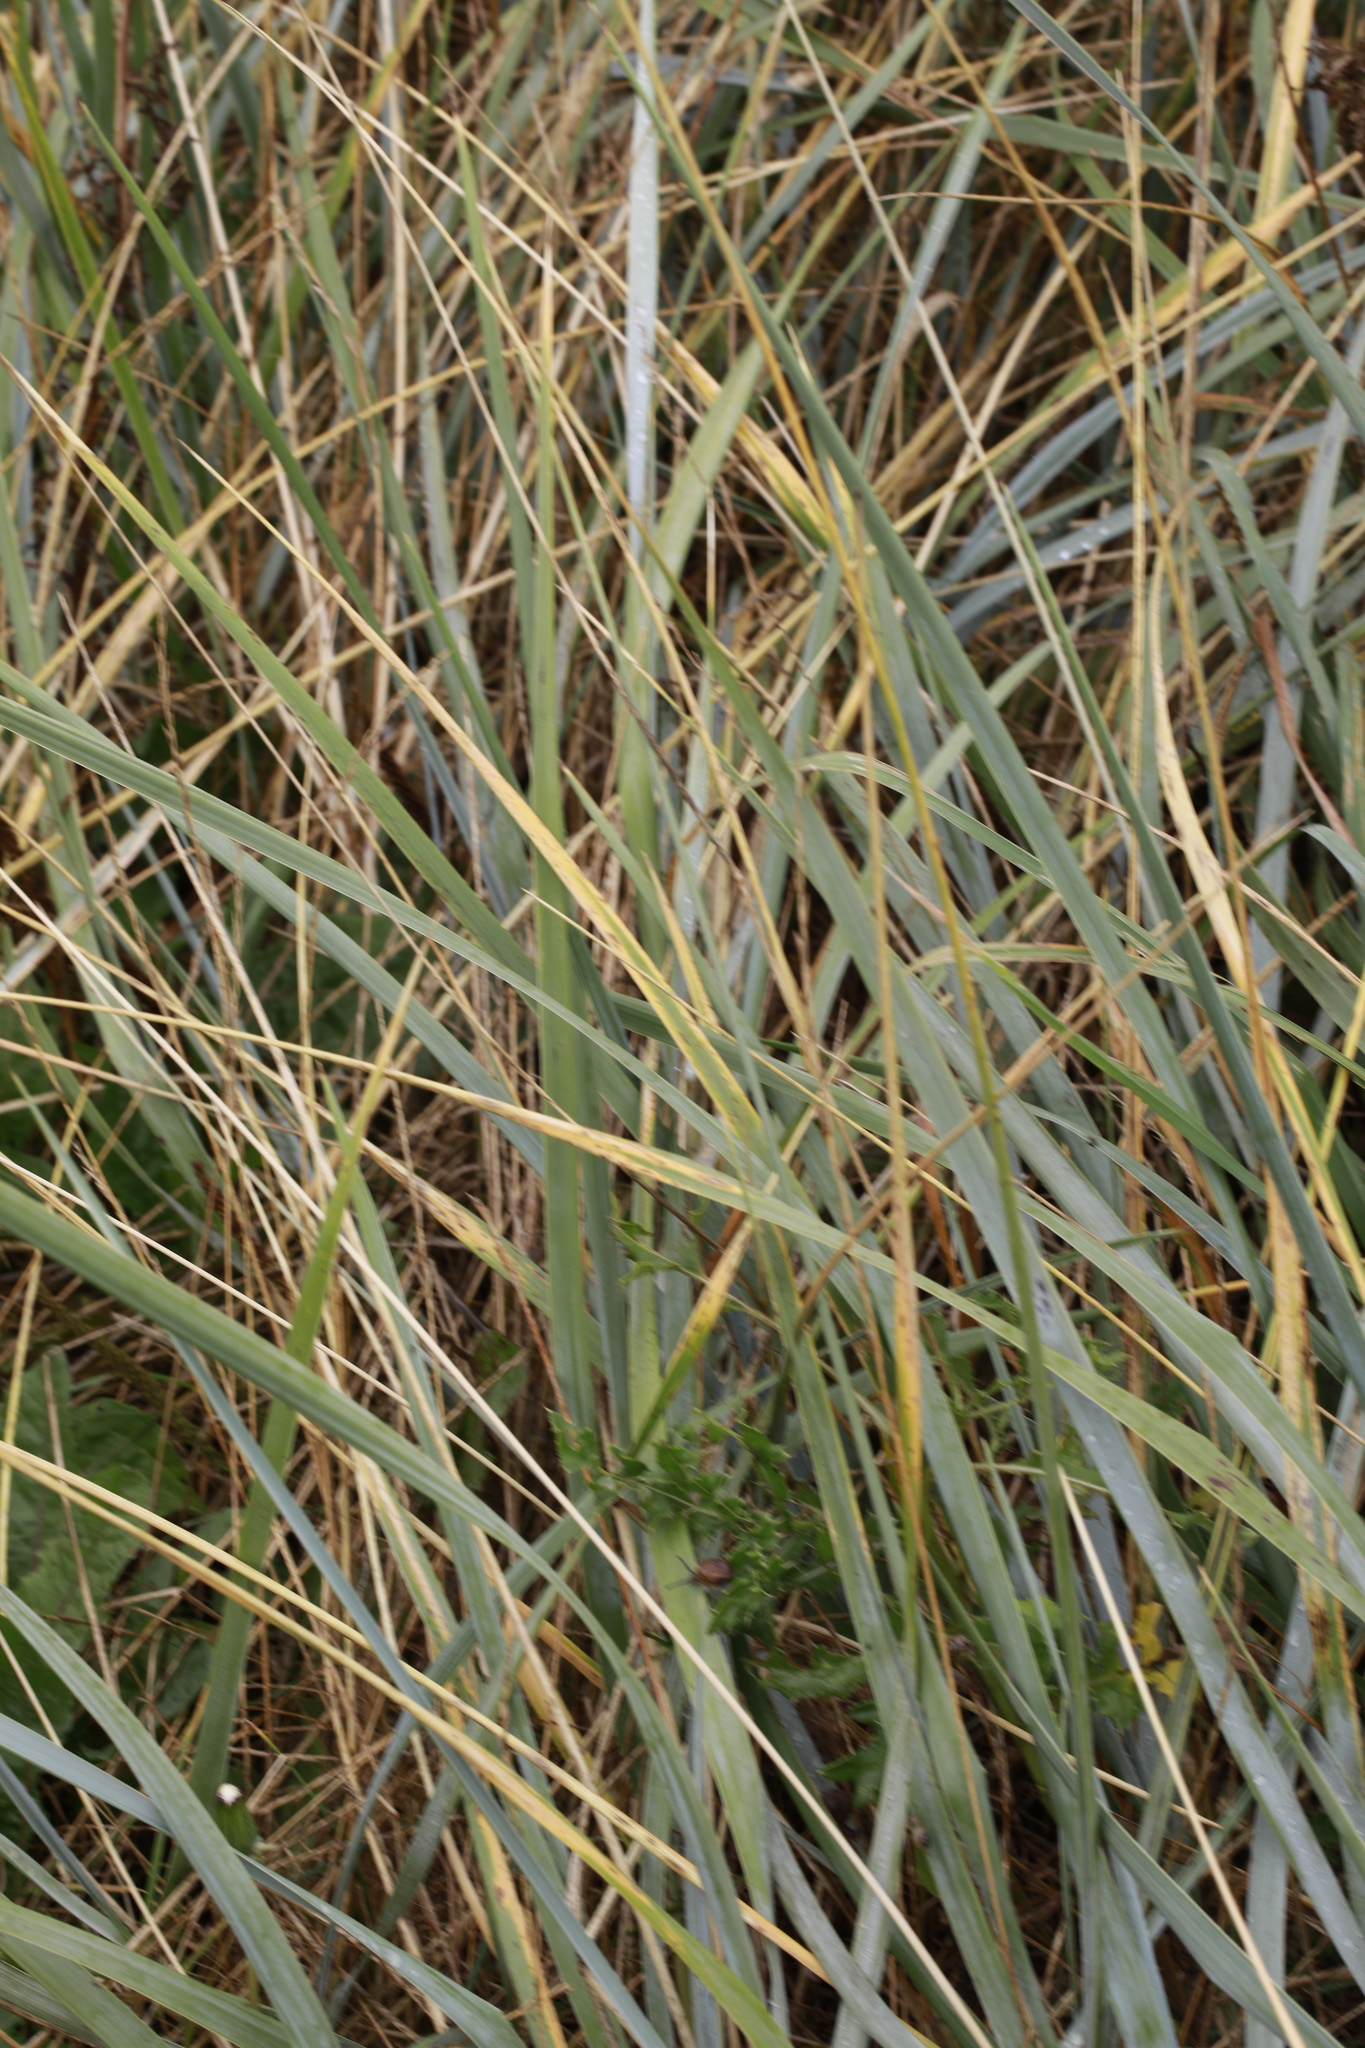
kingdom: Plantae
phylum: Tracheophyta
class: Liliopsida
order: Poales
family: Poaceae
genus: Leymus
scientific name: Leymus arenarius
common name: Lyme-grass
